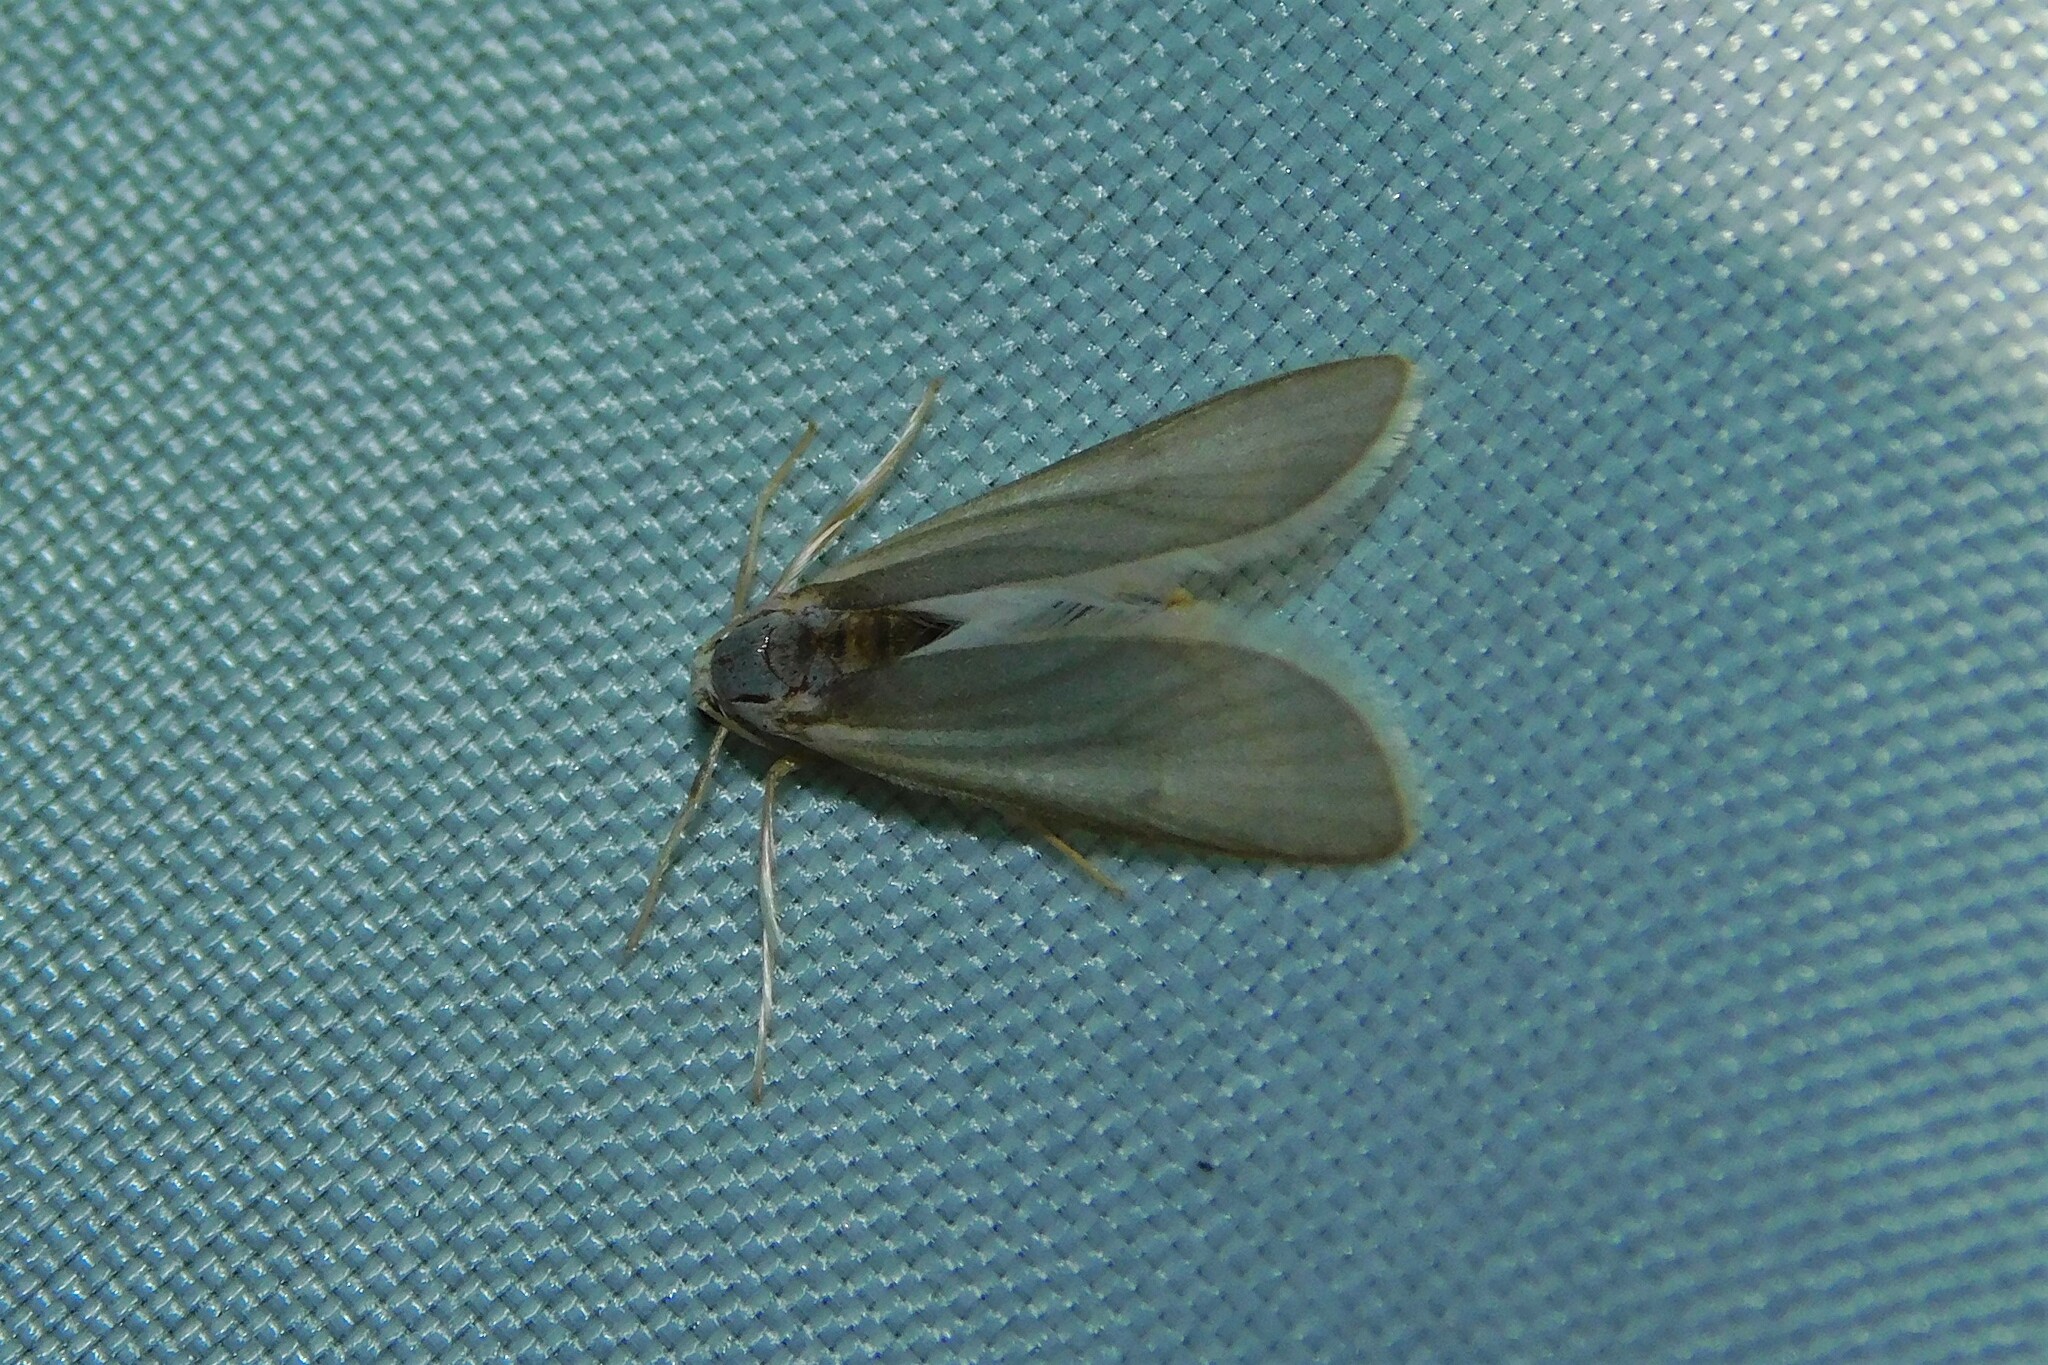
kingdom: Animalia
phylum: Arthropoda
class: Insecta
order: Lepidoptera
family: Crambidae
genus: Acentria
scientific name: Acentria ephemerella
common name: European water moth
